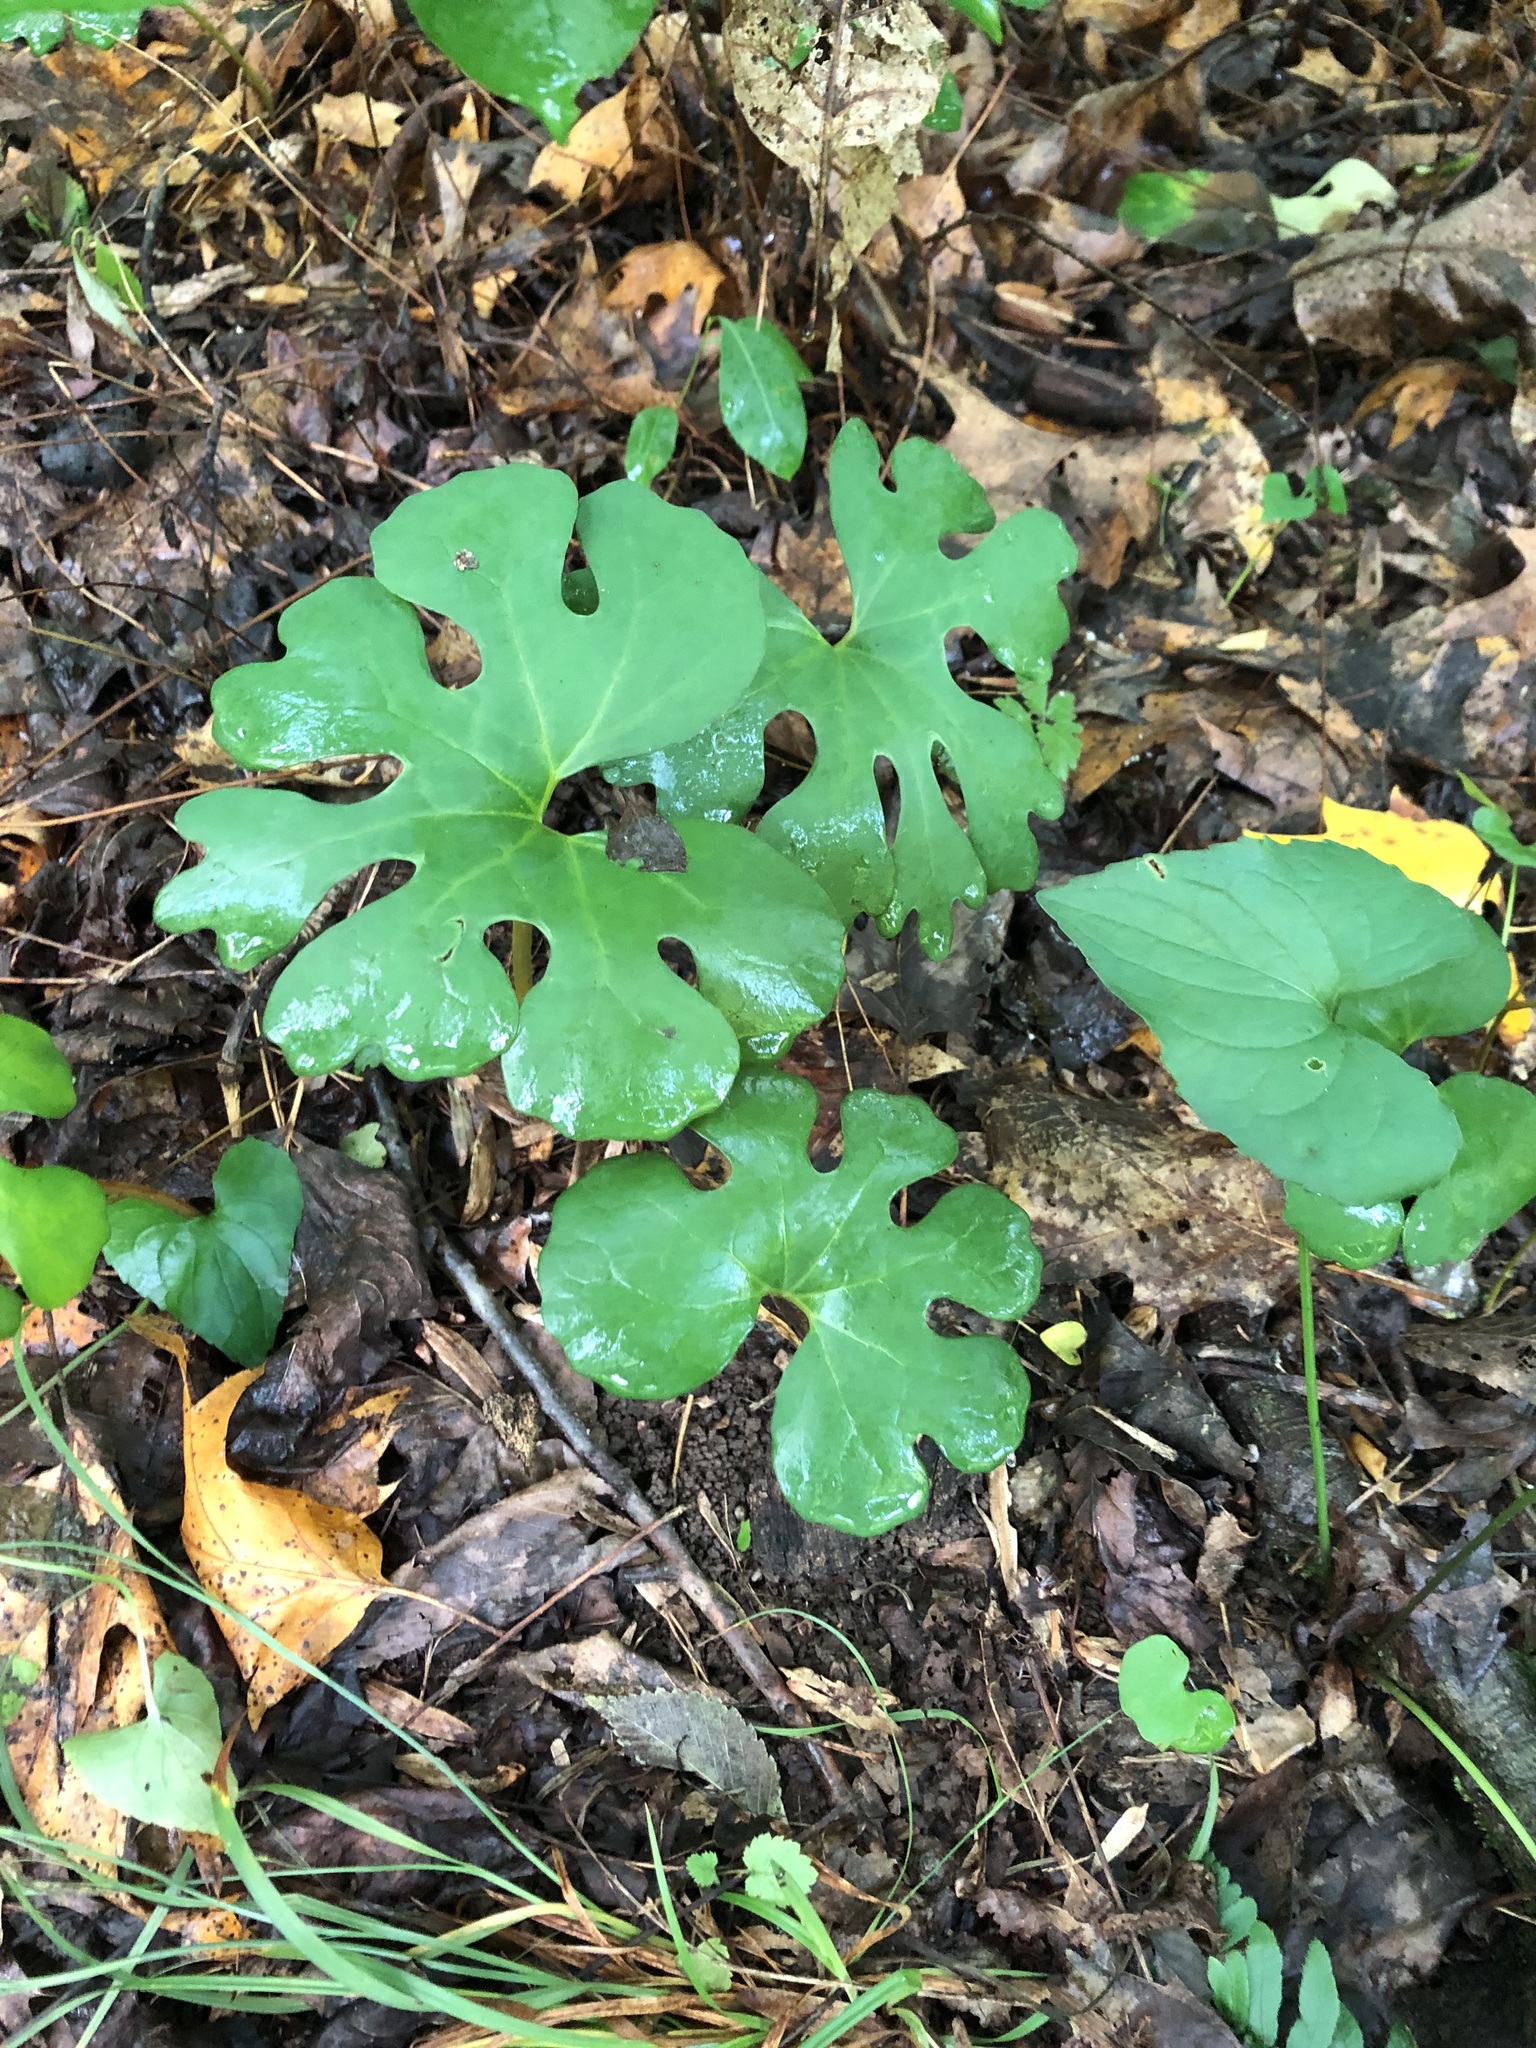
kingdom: Plantae
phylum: Tracheophyta
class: Magnoliopsida
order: Ranunculales
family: Papaveraceae
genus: Sanguinaria
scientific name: Sanguinaria canadensis
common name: Bloodroot
